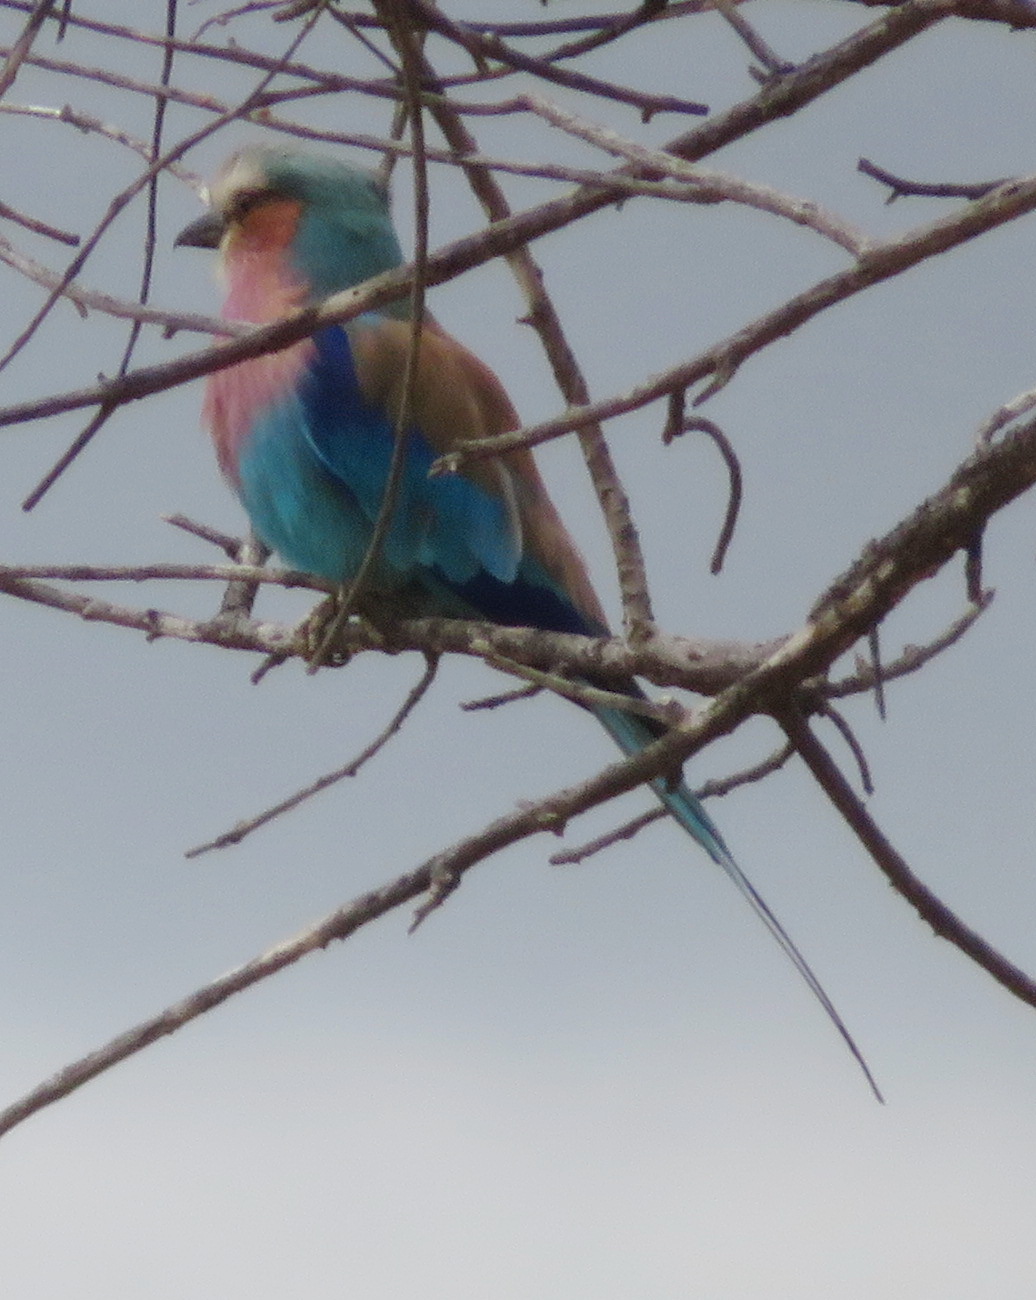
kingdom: Animalia
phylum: Chordata
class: Aves
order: Coraciiformes
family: Coraciidae
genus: Coracias
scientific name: Coracias caudatus
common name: Lilac-breasted roller
